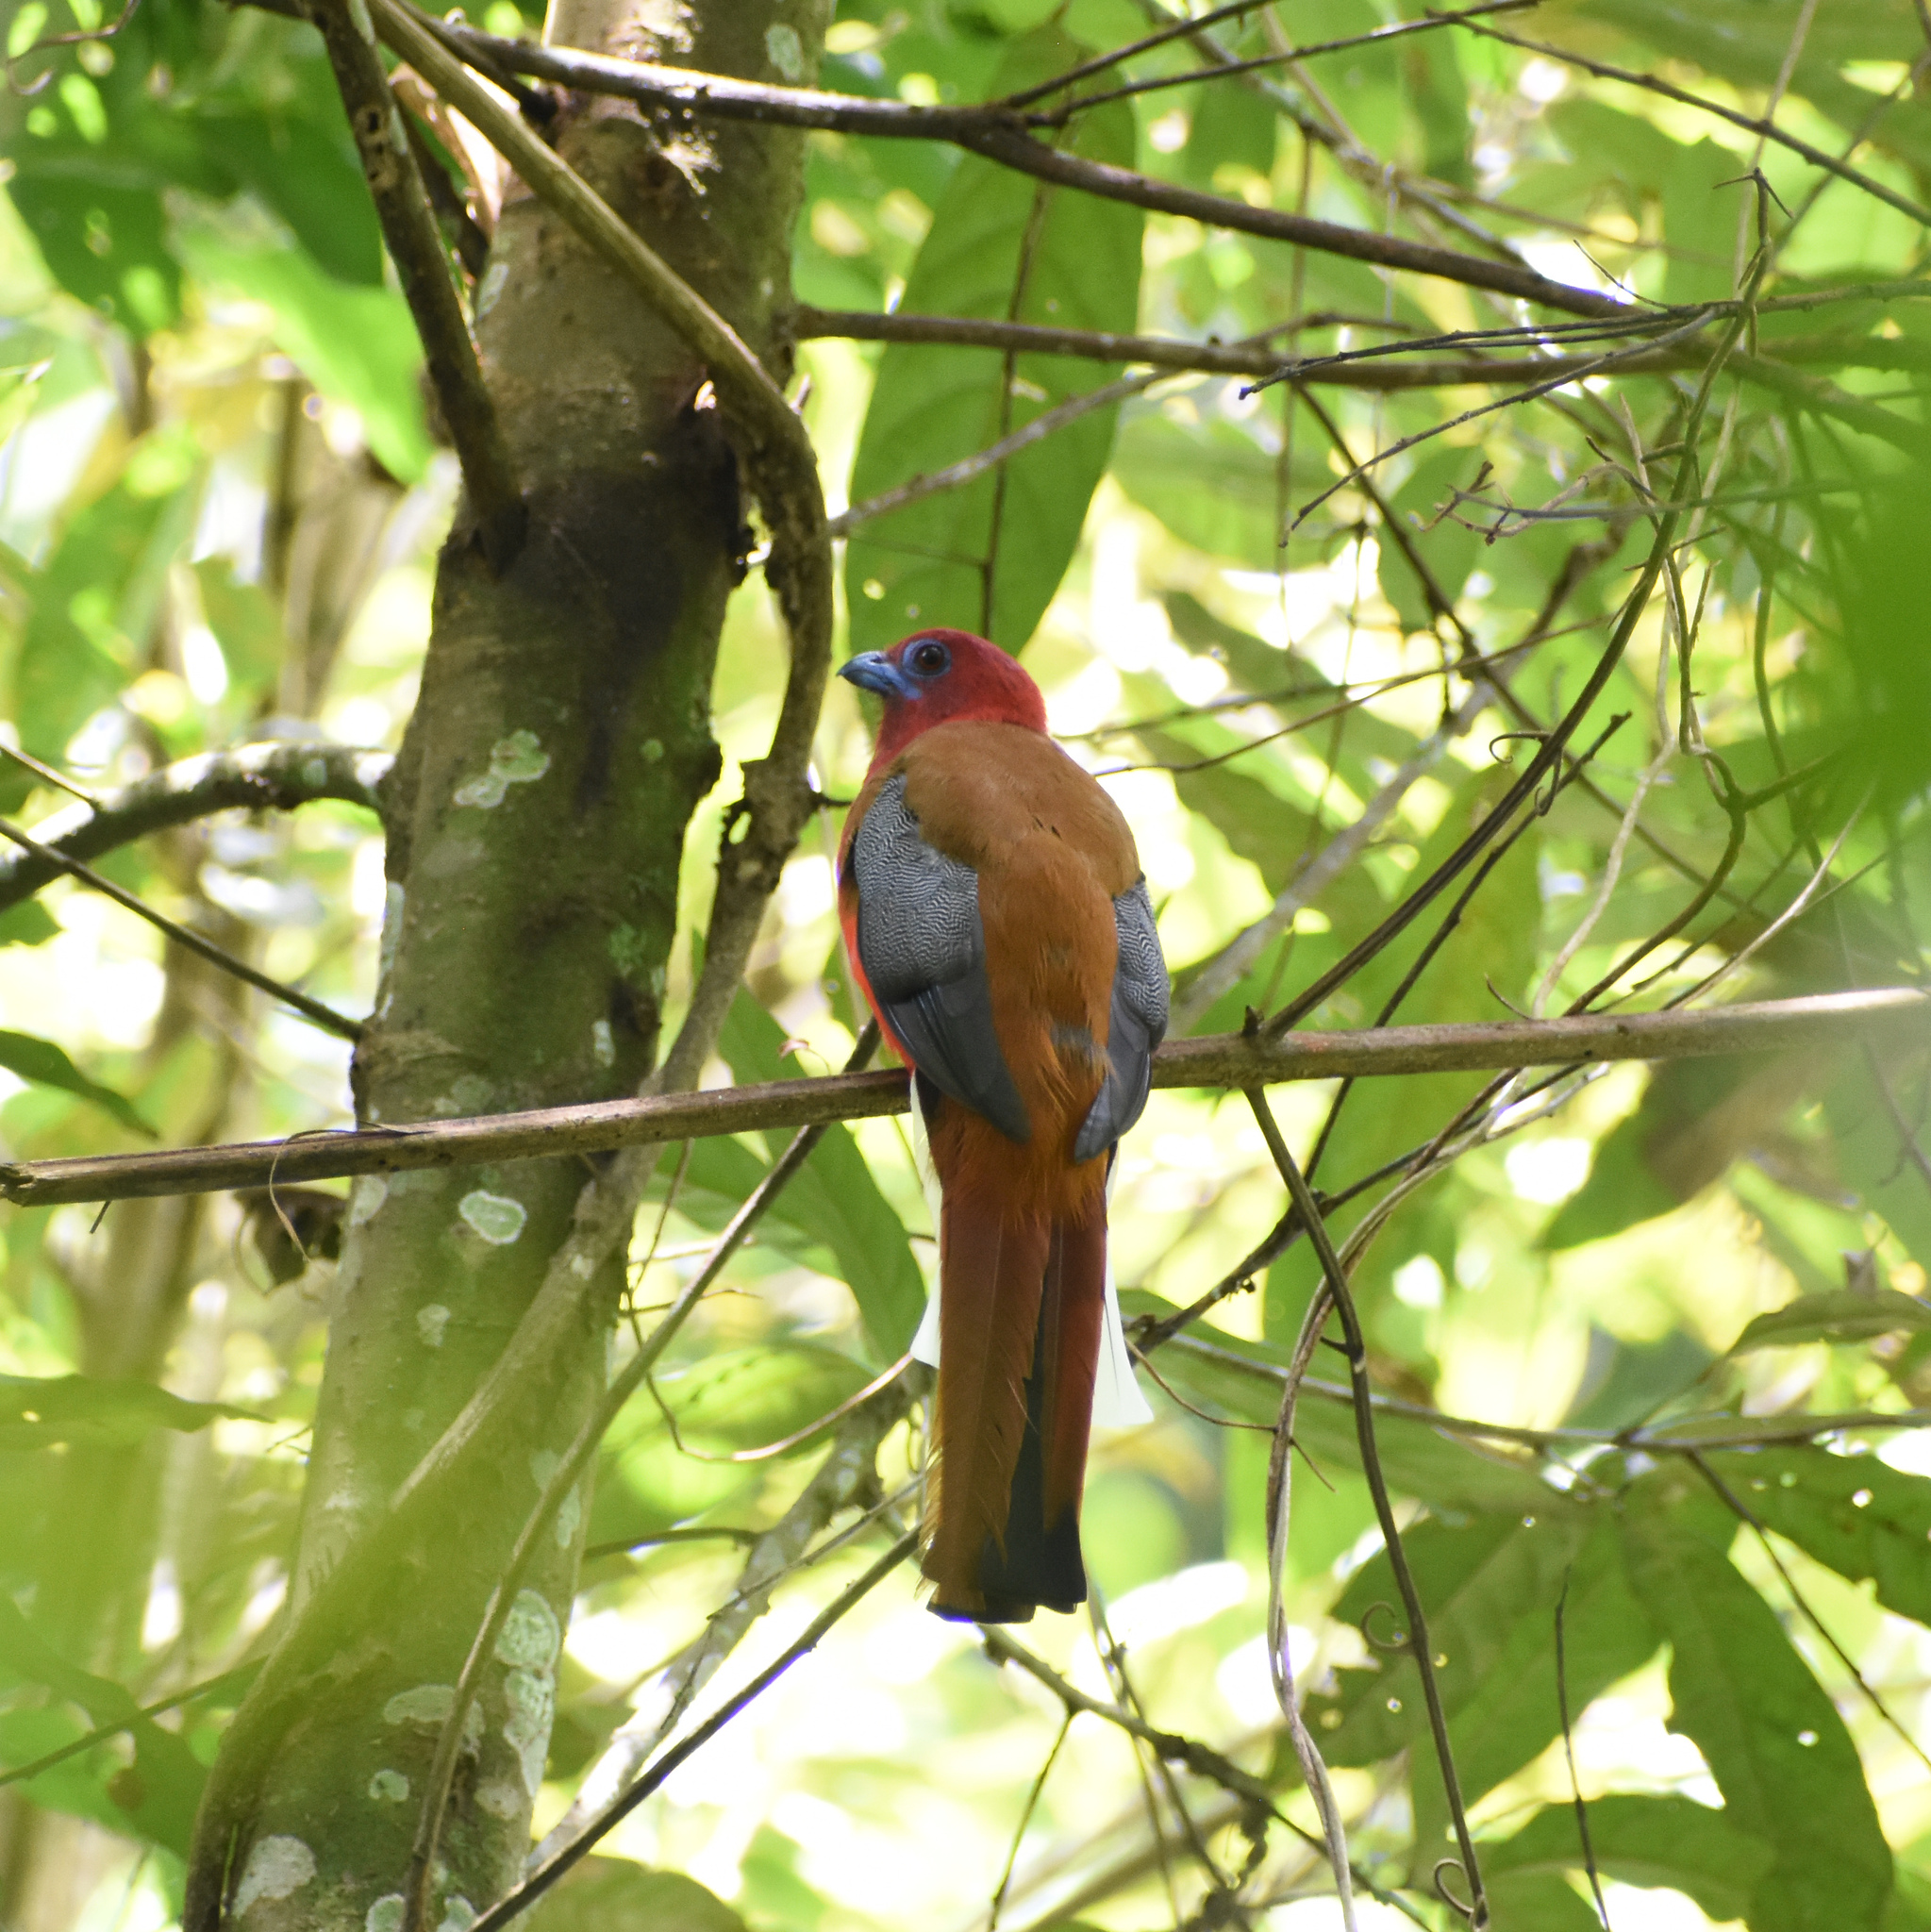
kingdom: Animalia
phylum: Chordata
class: Aves
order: Trogoniformes
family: Trogonidae
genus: Harpactes
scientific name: Harpactes erythrocephalus
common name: Red-headed trogon
